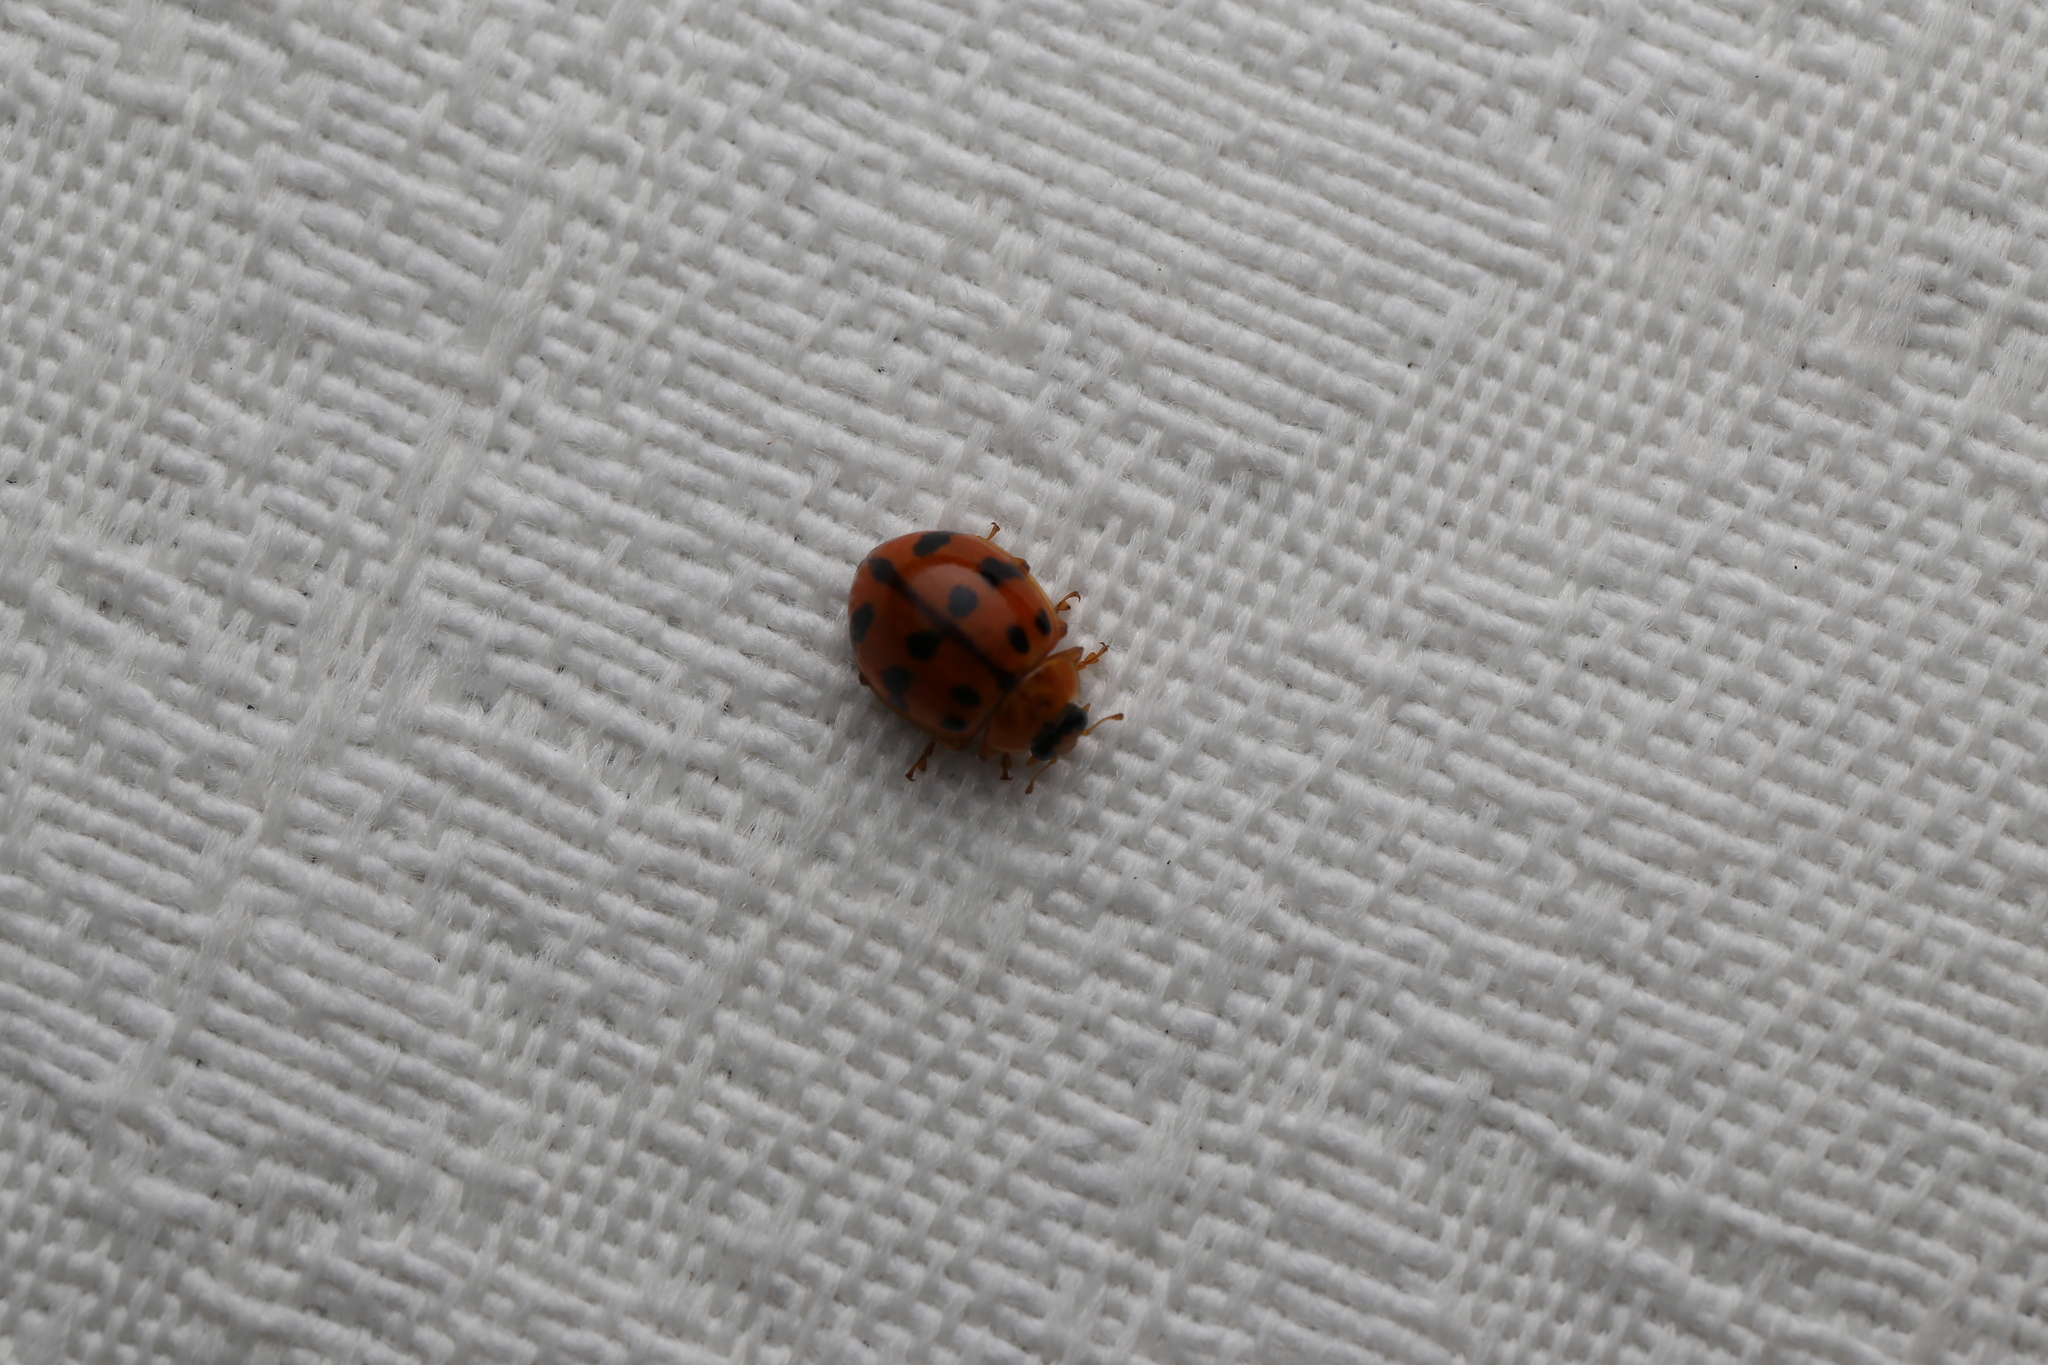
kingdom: Animalia
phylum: Arthropoda
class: Insecta
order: Coleoptera
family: Coccinellidae
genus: Harmonia
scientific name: Harmonia octomaculata
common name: Lady beetle
